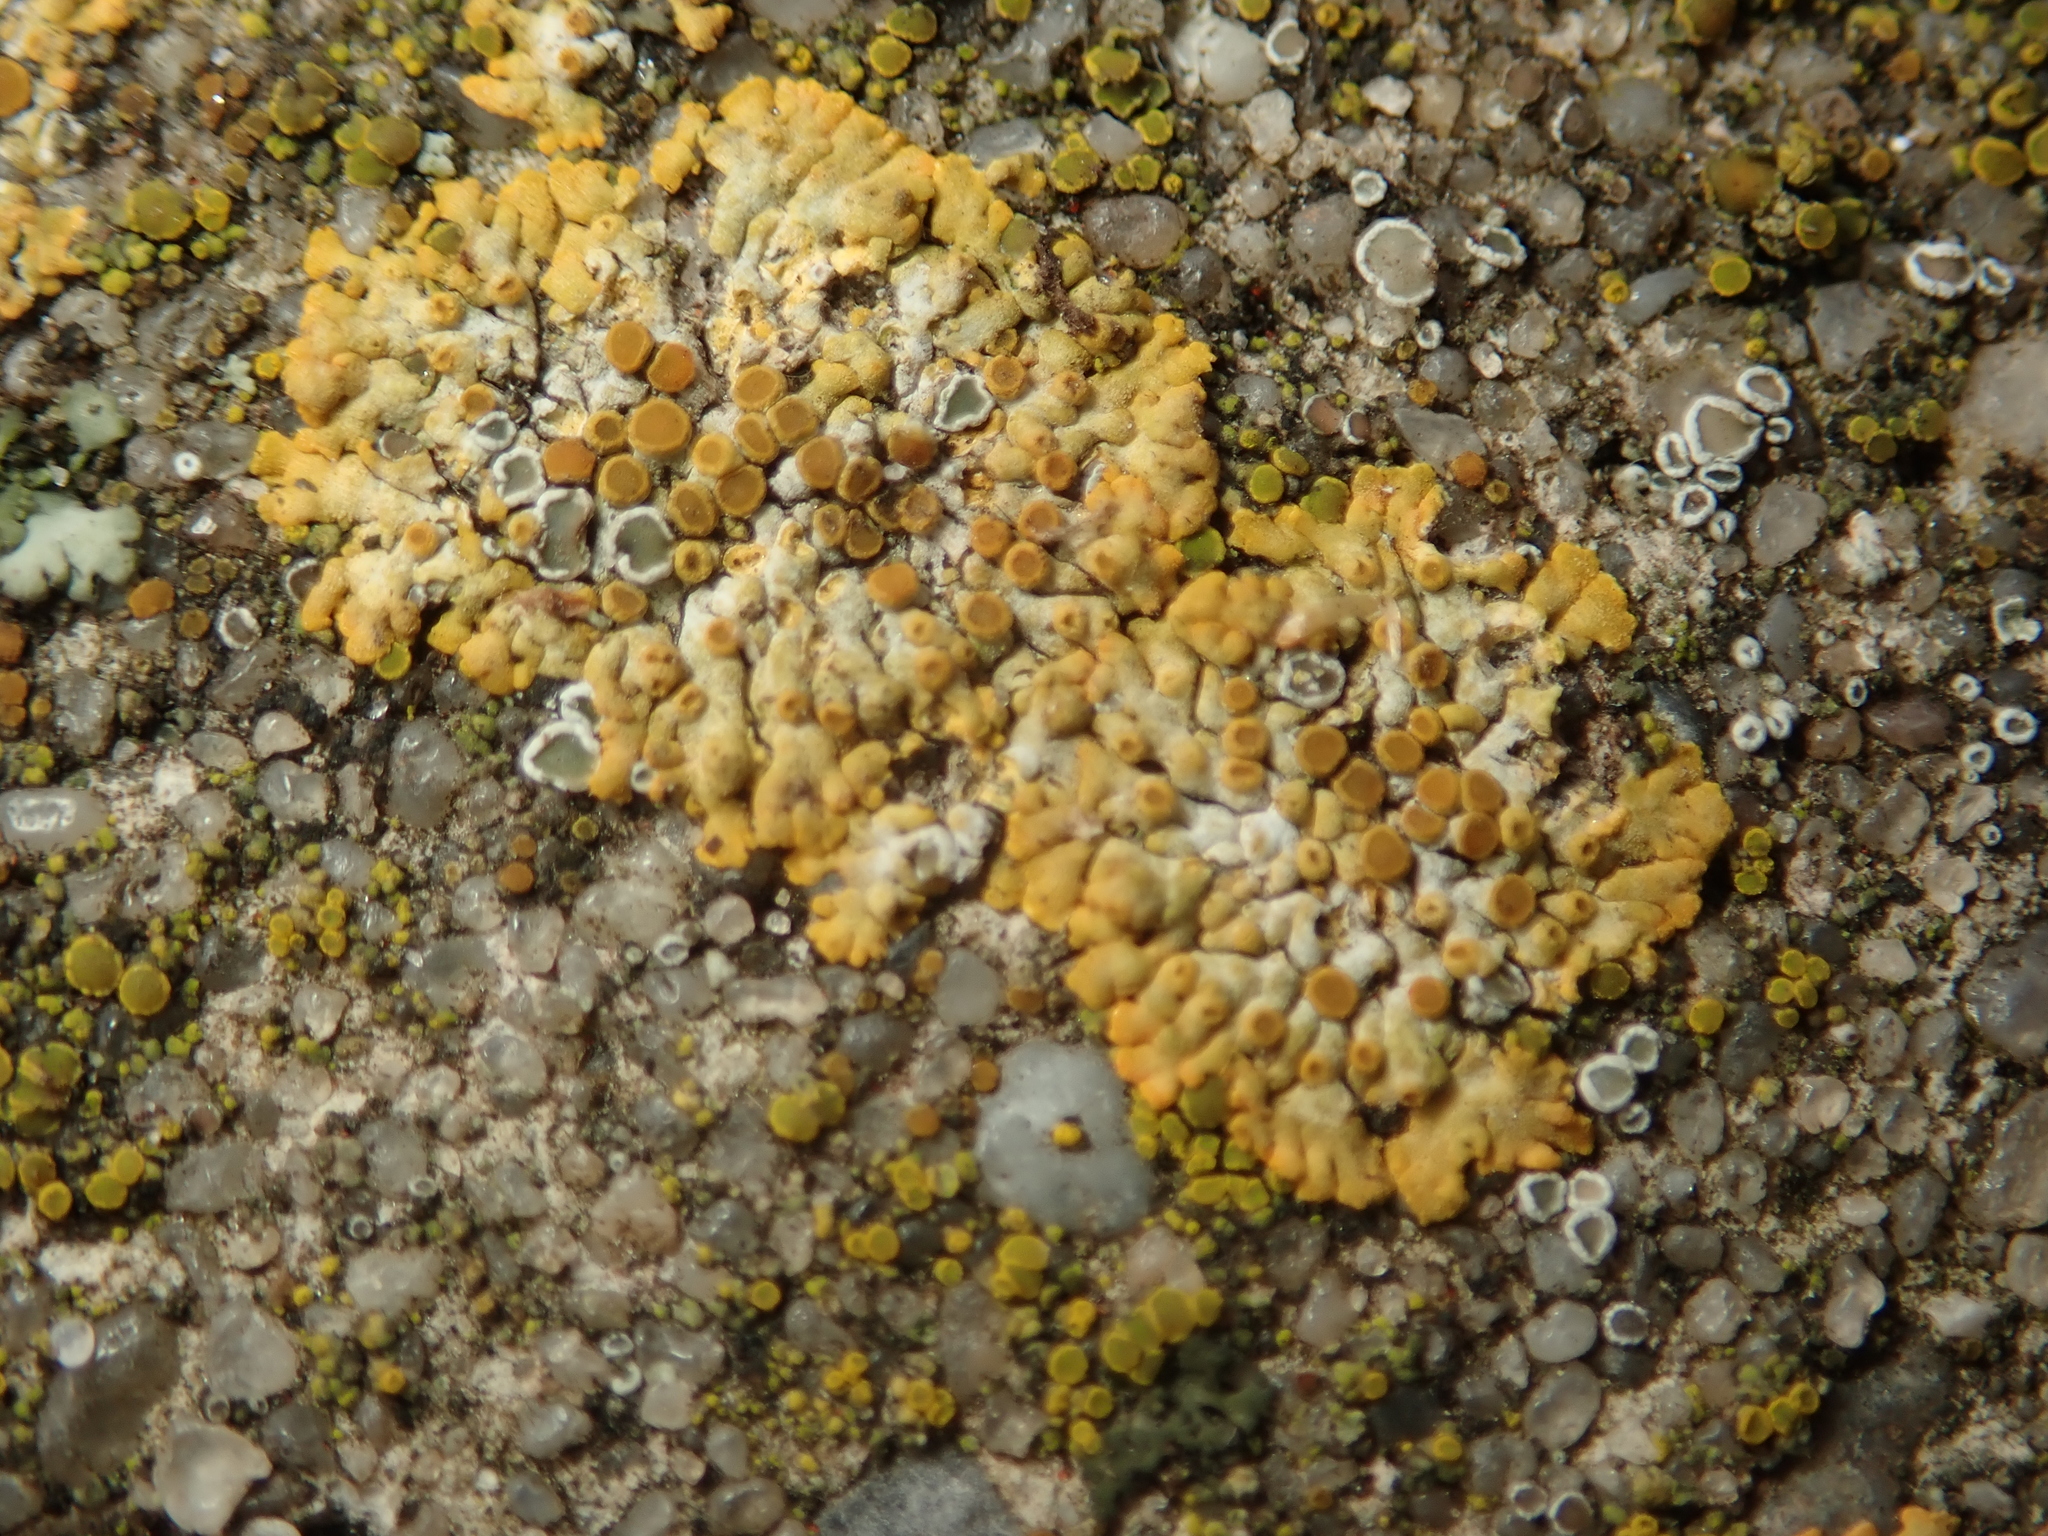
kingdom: Fungi
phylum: Ascomycota
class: Lecanoromycetes
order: Teloschistales
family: Teloschistaceae
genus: Calogaya
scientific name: Calogaya pusilla
